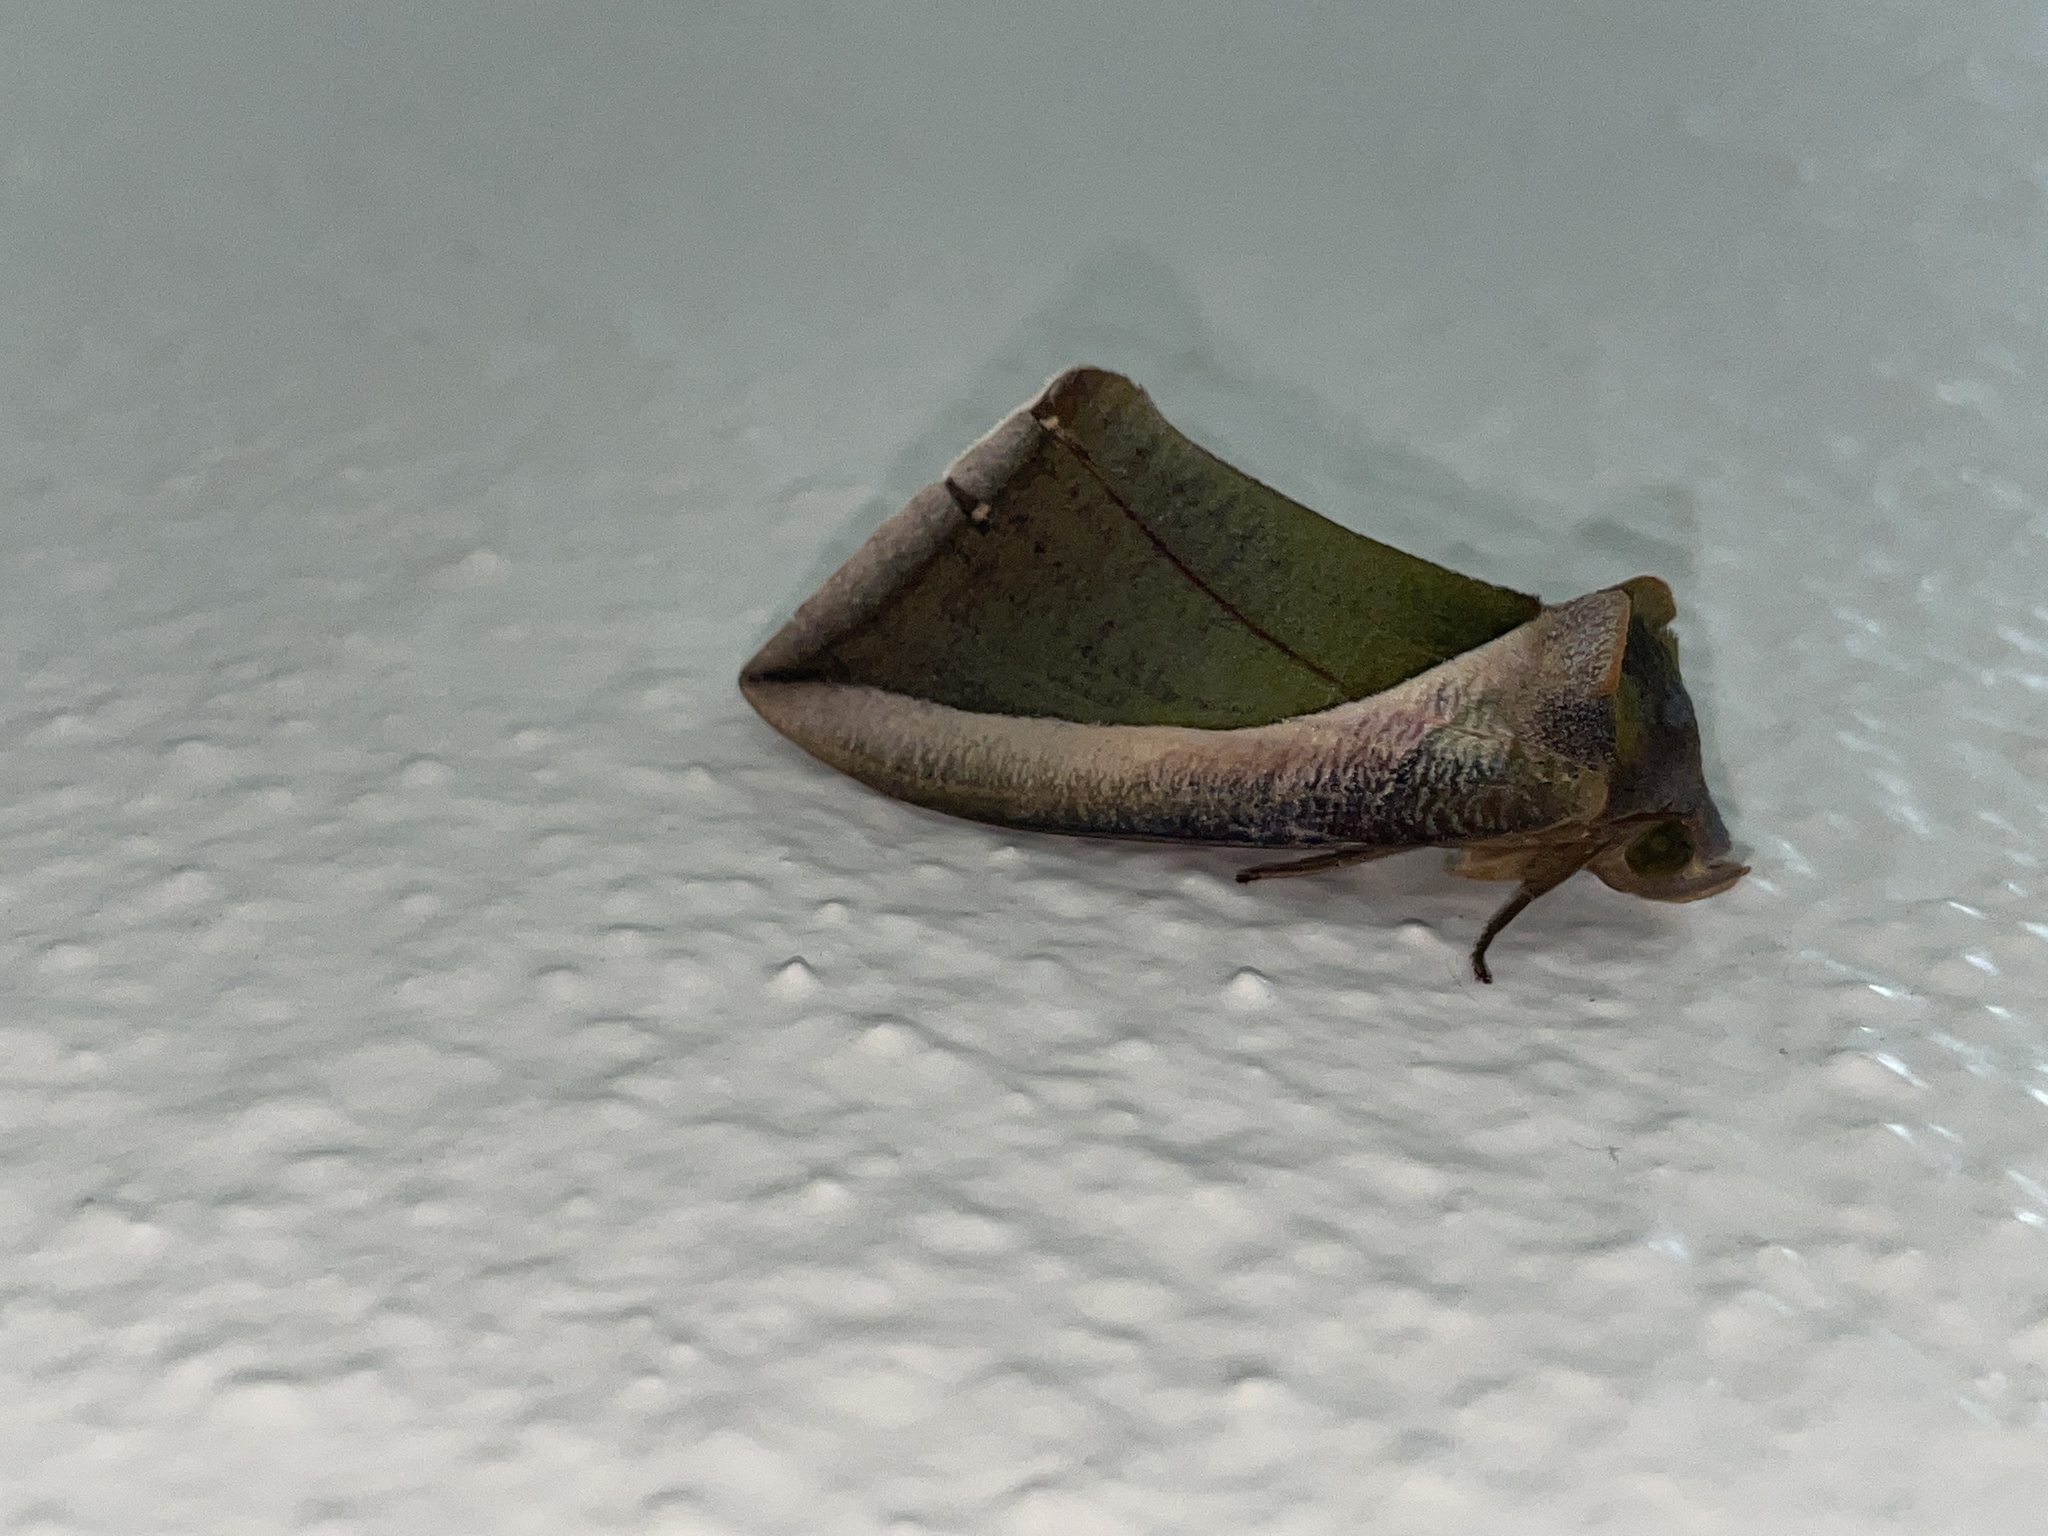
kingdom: Animalia
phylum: Arthropoda
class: Insecta
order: Lepidoptera
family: Erebidae
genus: Eudocima
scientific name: Eudocima salaminia
